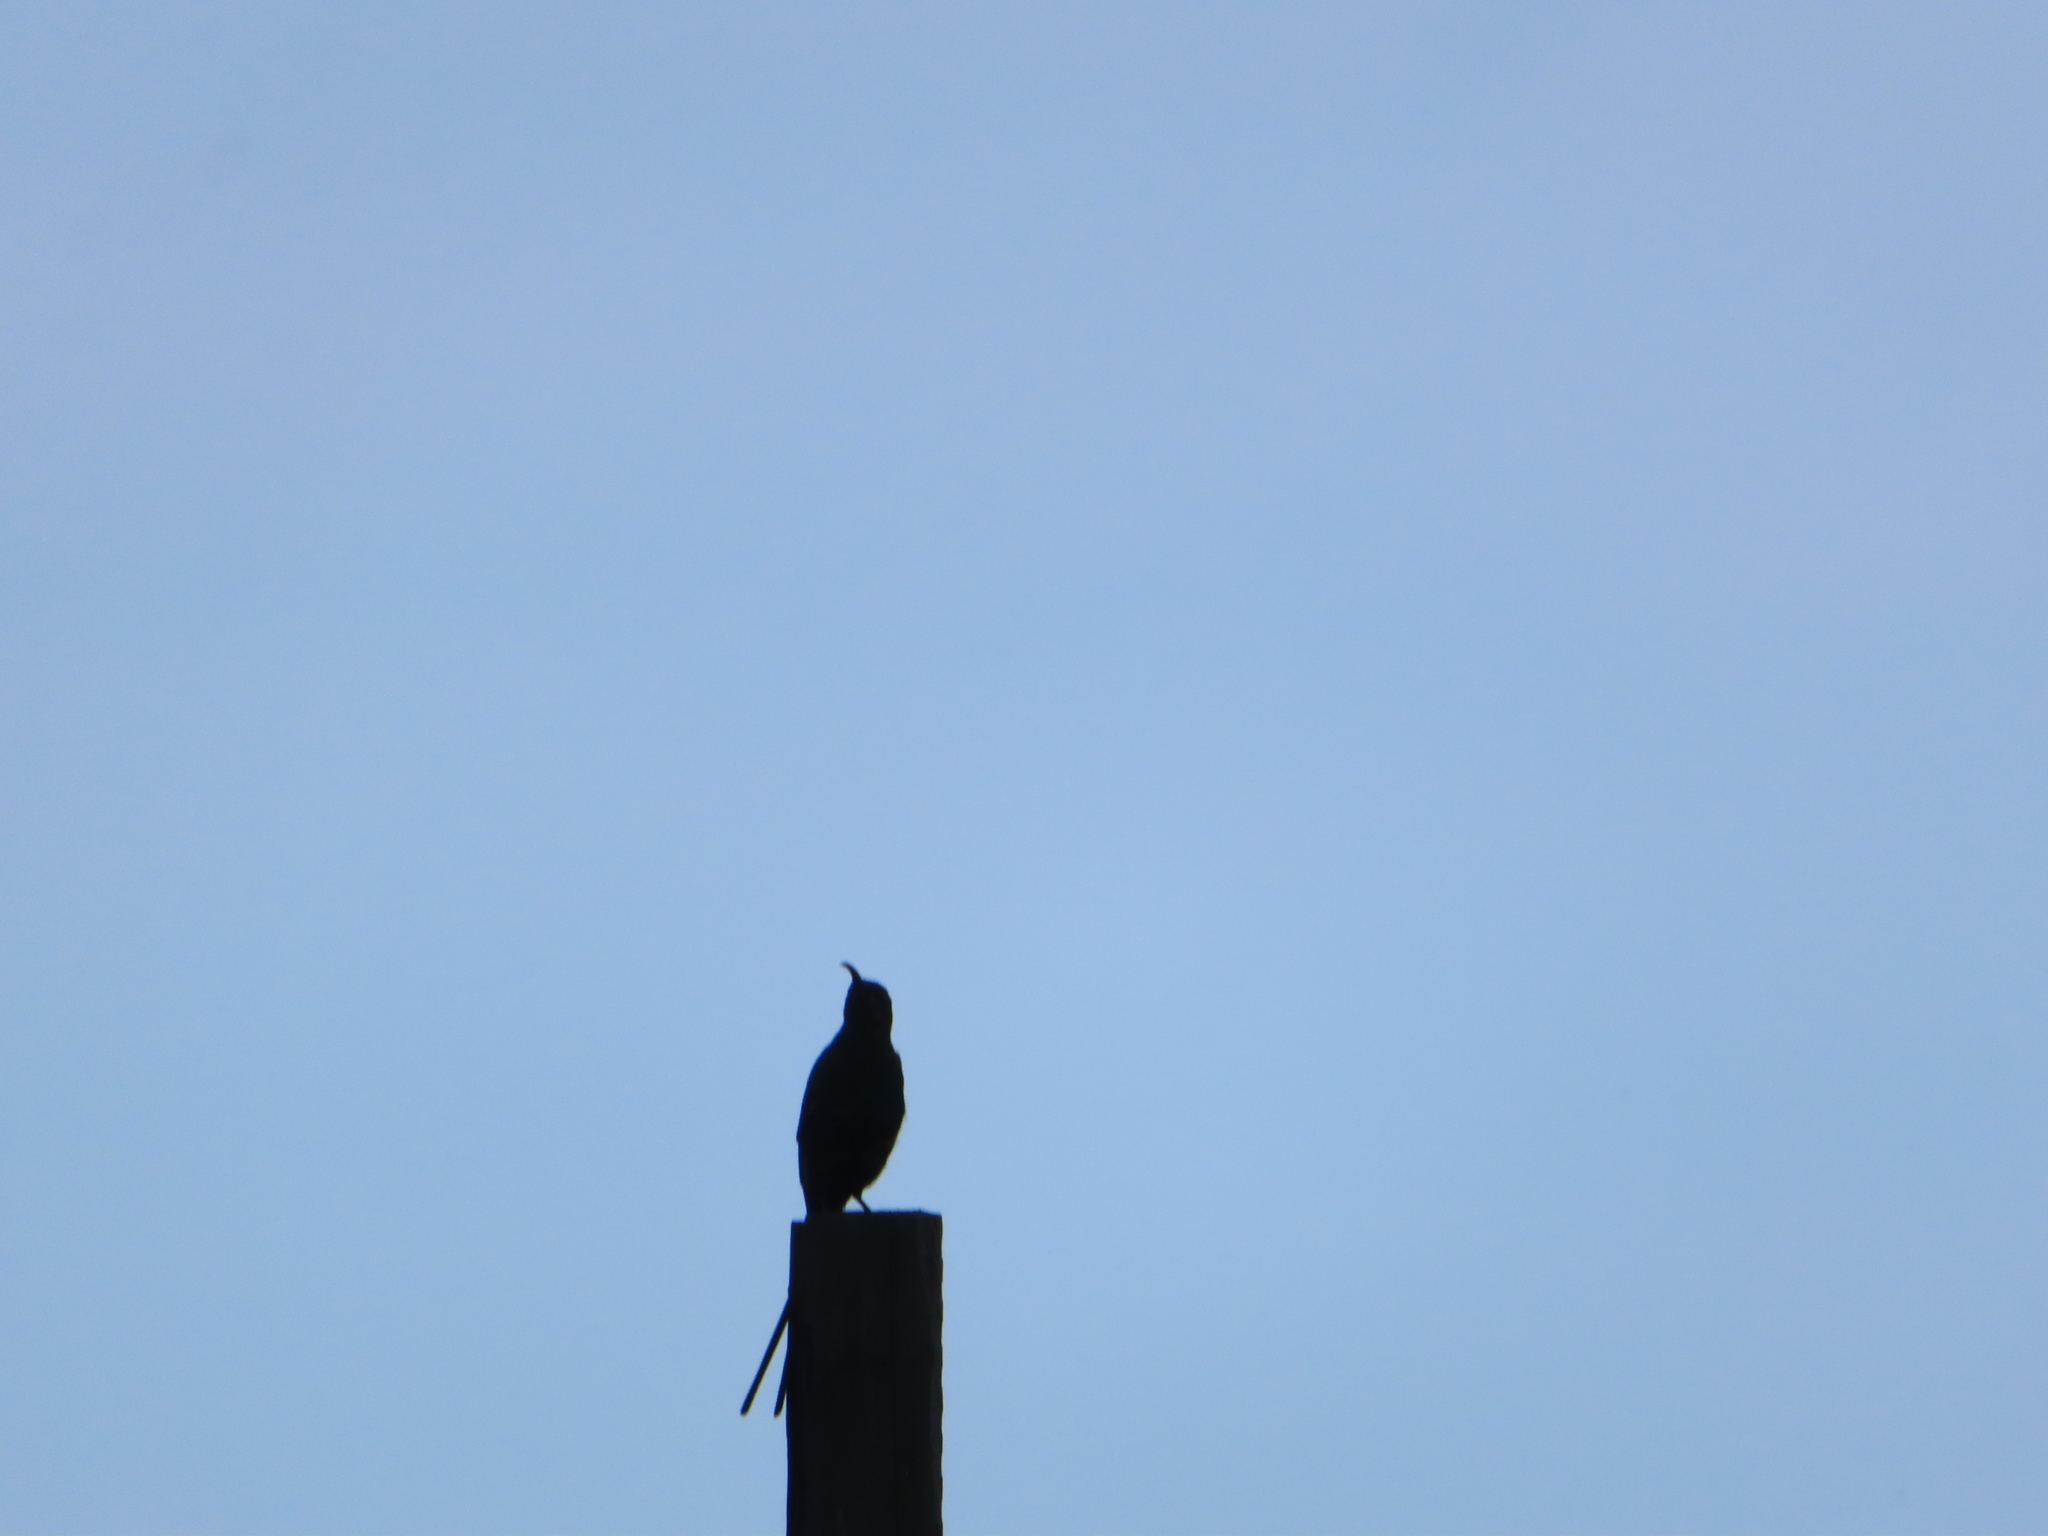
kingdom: Animalia
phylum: Chordata
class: Aves
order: Passeriformes
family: Nectariniidae
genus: Nectarinia
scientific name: Nectarinia famosa
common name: Malachite sunbird
